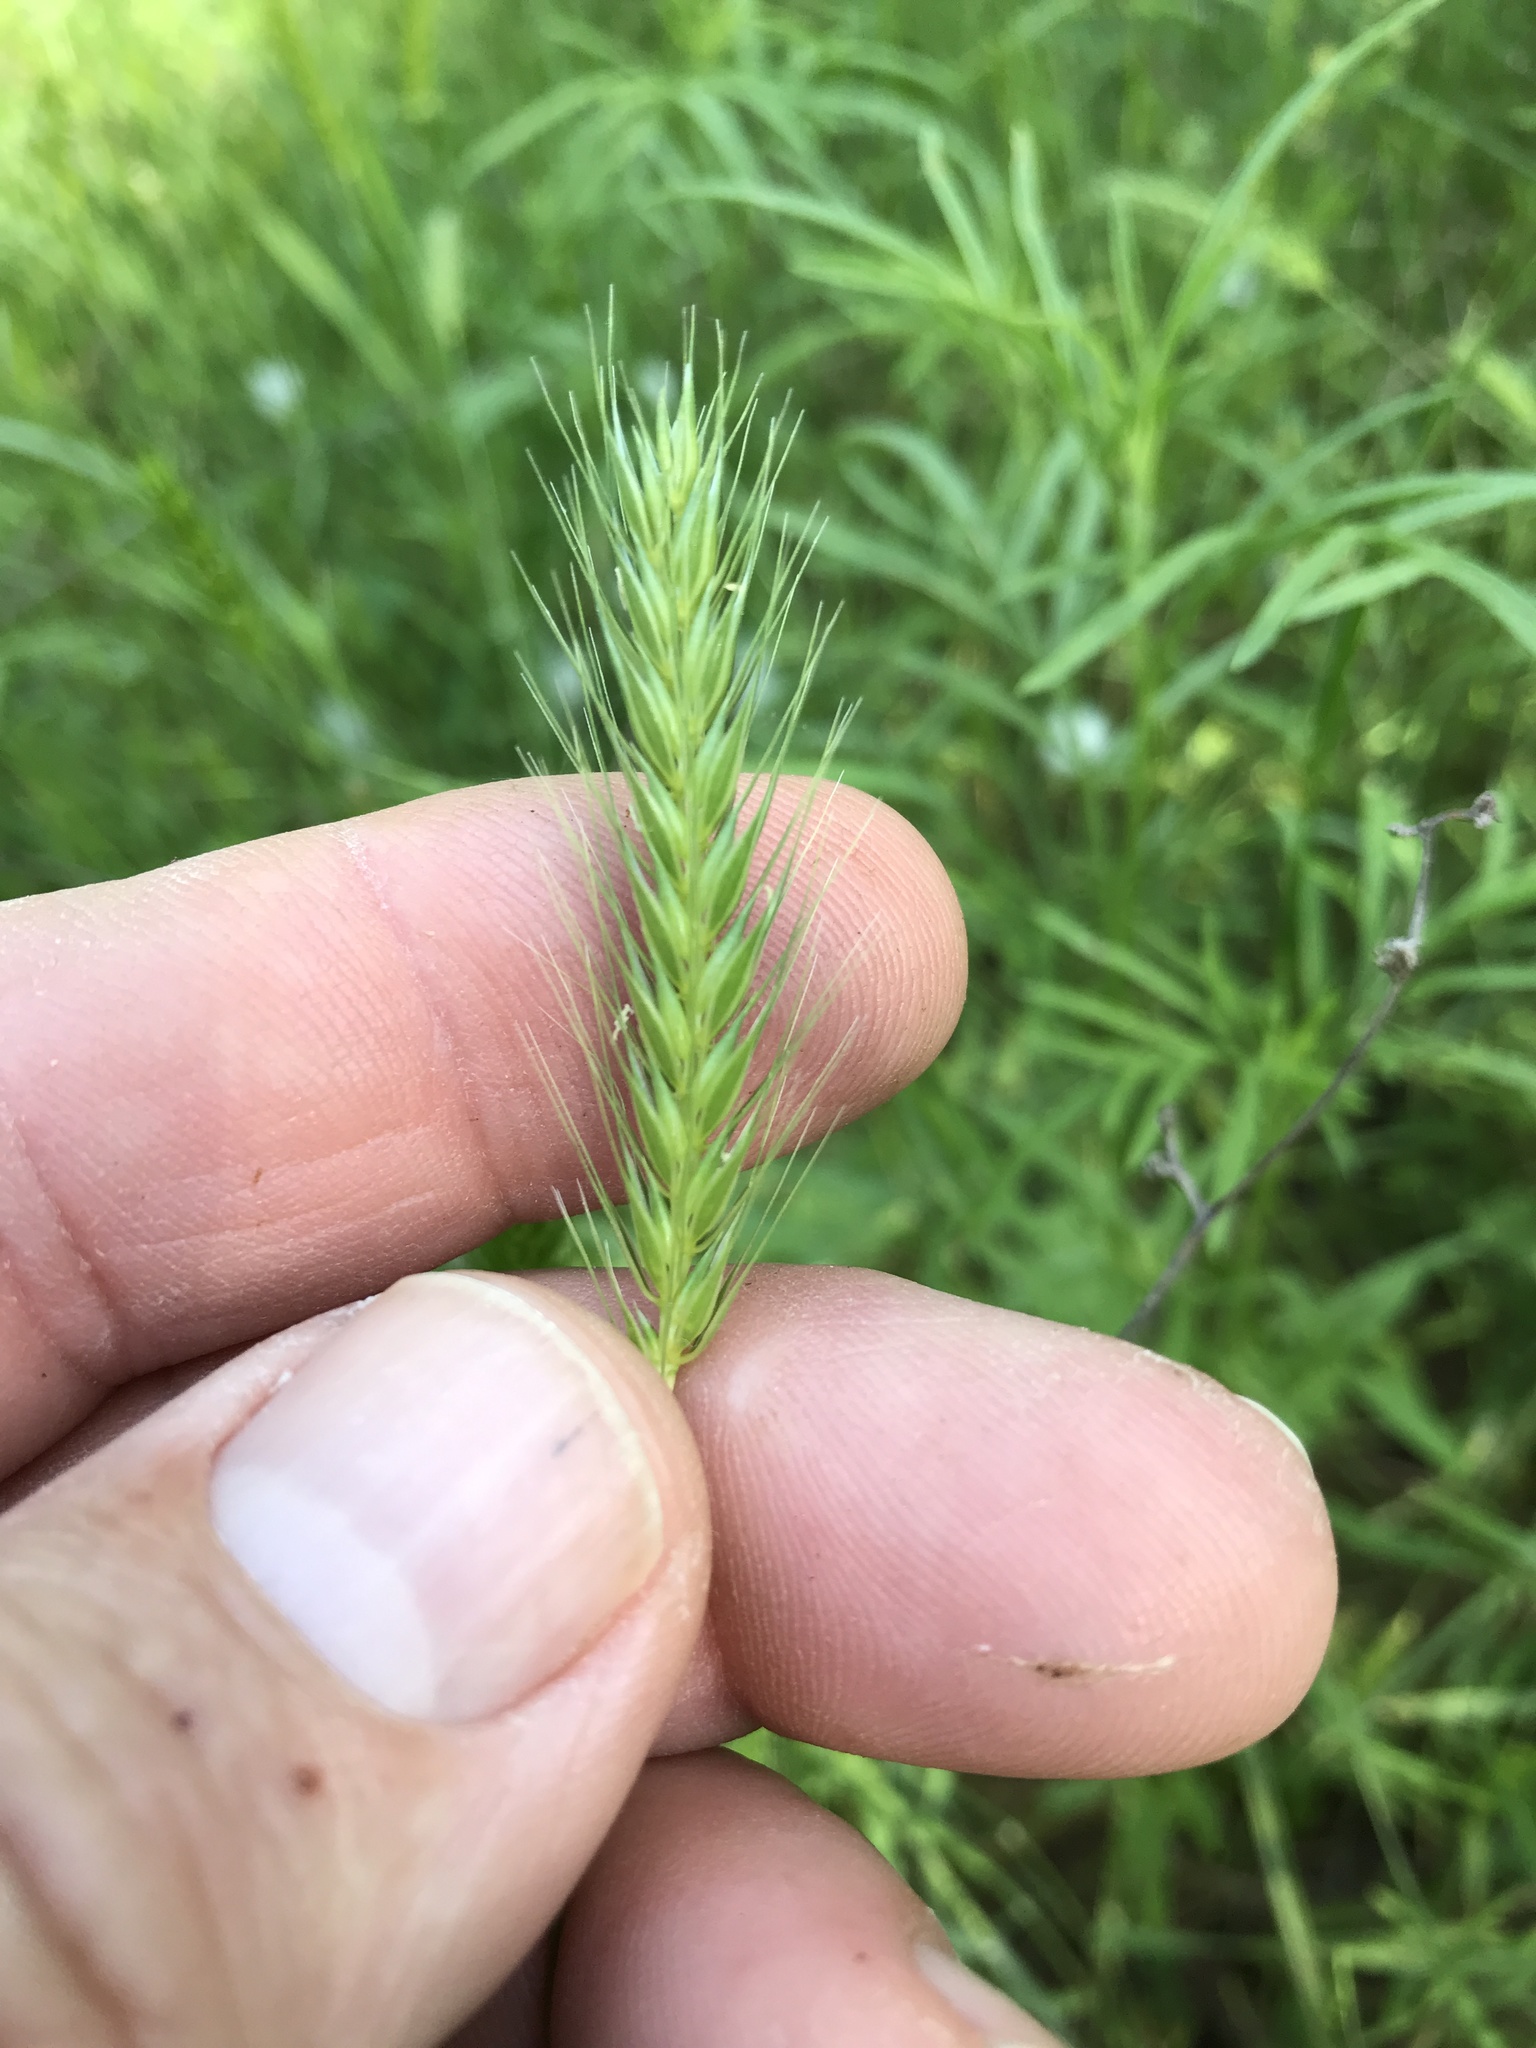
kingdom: Plantae
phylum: Tracheophyta
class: Liliopsida
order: Poales
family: Poaceae
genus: Hordeum
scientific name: Hordeum pusillum
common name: Little barley
